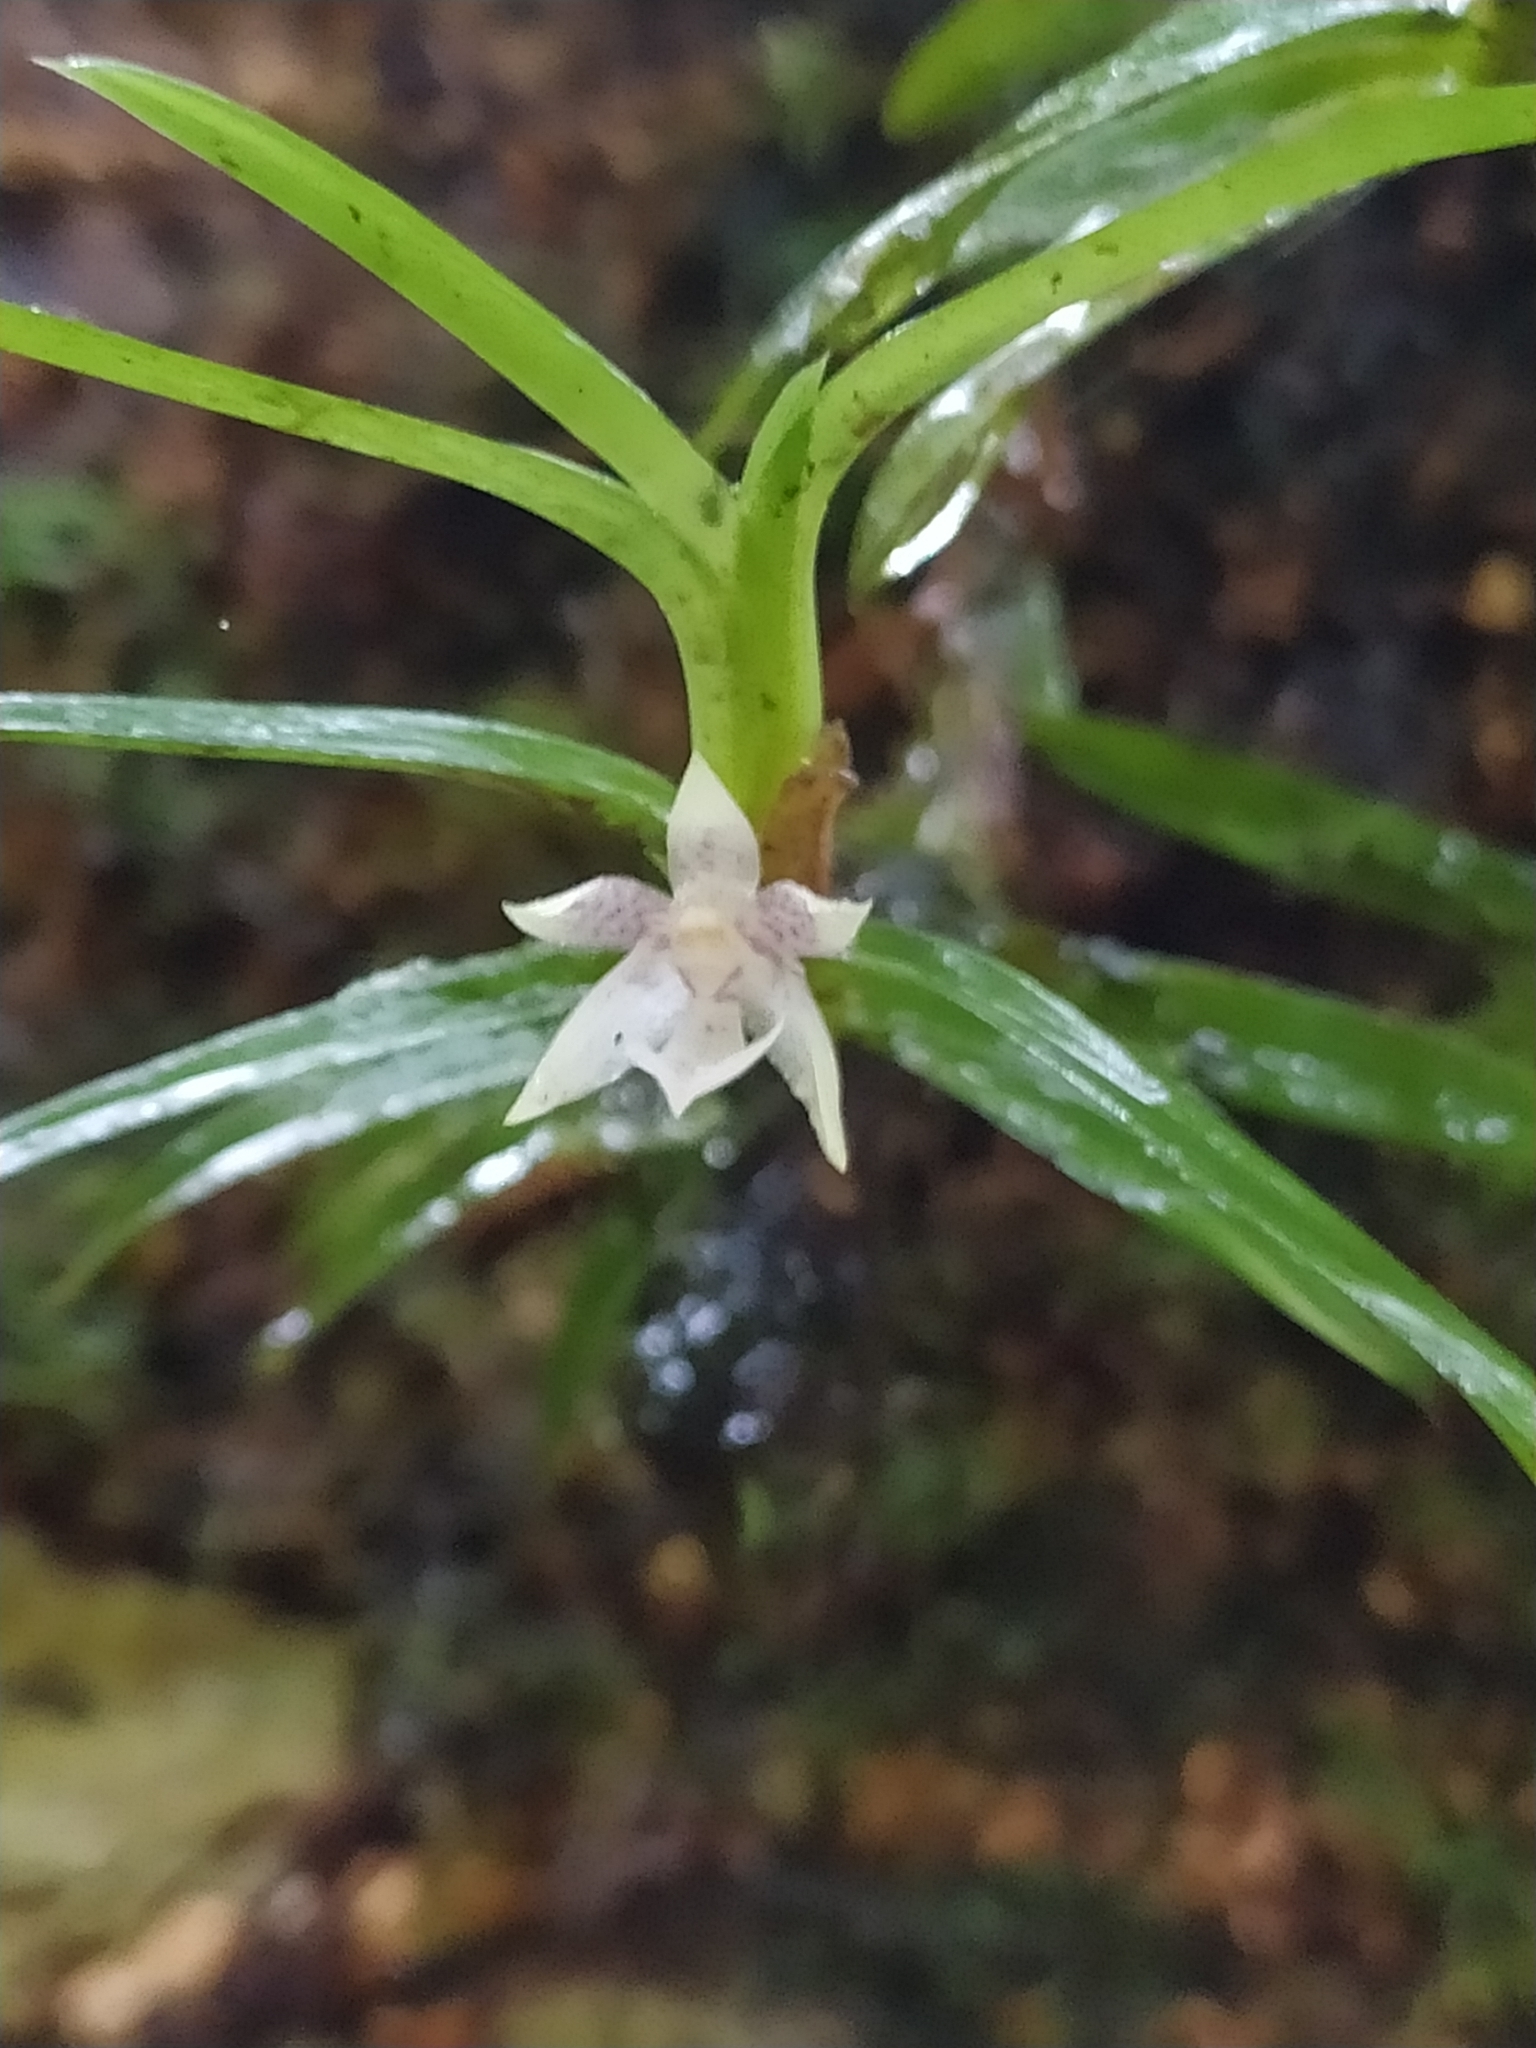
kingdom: Plantae
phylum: Tracheophyta
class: Liliopsida
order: Asparagales
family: Orchidaceae
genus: Dichaea
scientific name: Dichaea venezuelensis
